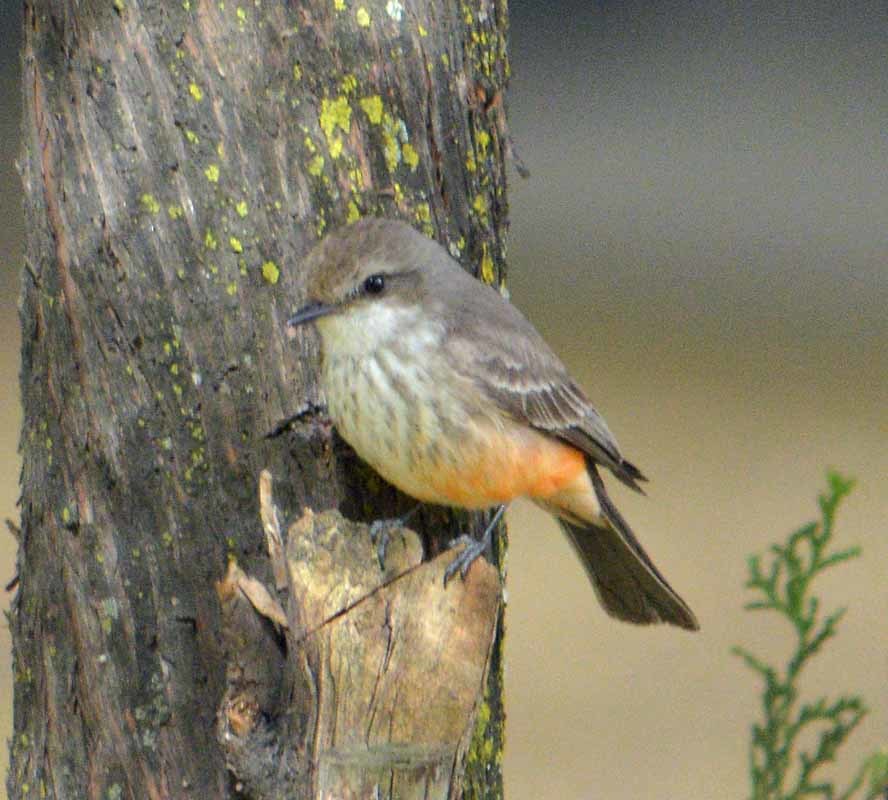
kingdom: Animalia
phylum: Chordata
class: Aves
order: Passeriformes
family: Tyrannidae
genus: Pyrocephalus
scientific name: Pyrocephalus rubinus
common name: Vermilion flycatcher
